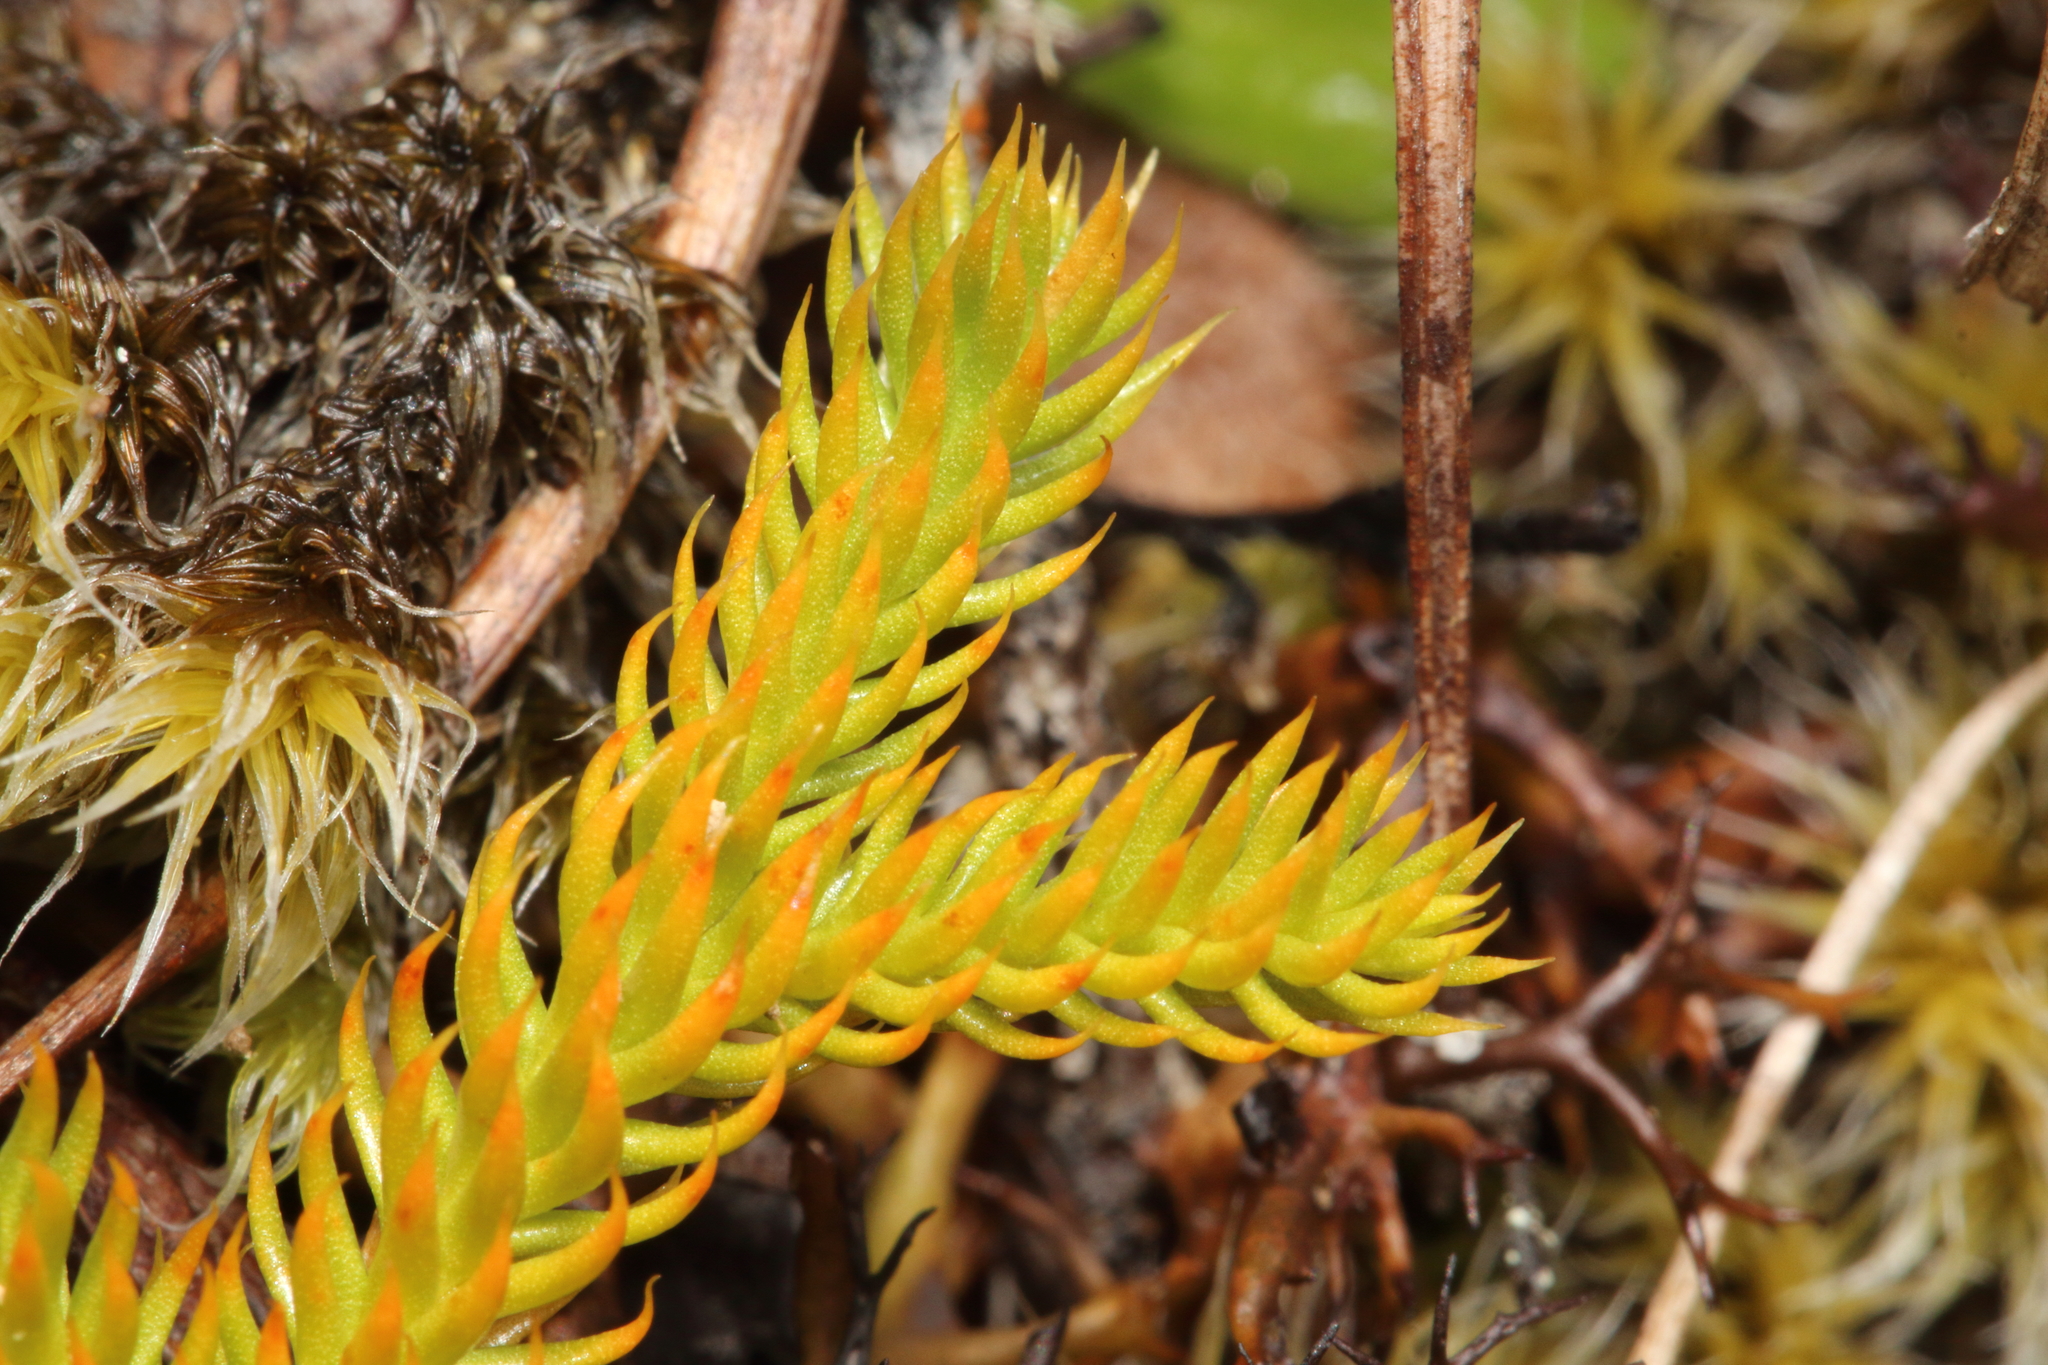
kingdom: Plantae
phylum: Tracheophyta
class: Lycopodiopsida
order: Lycopodiales
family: Lycopodiaceae
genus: Austrolycopodium
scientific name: Austrolycopodium fastigiatum
